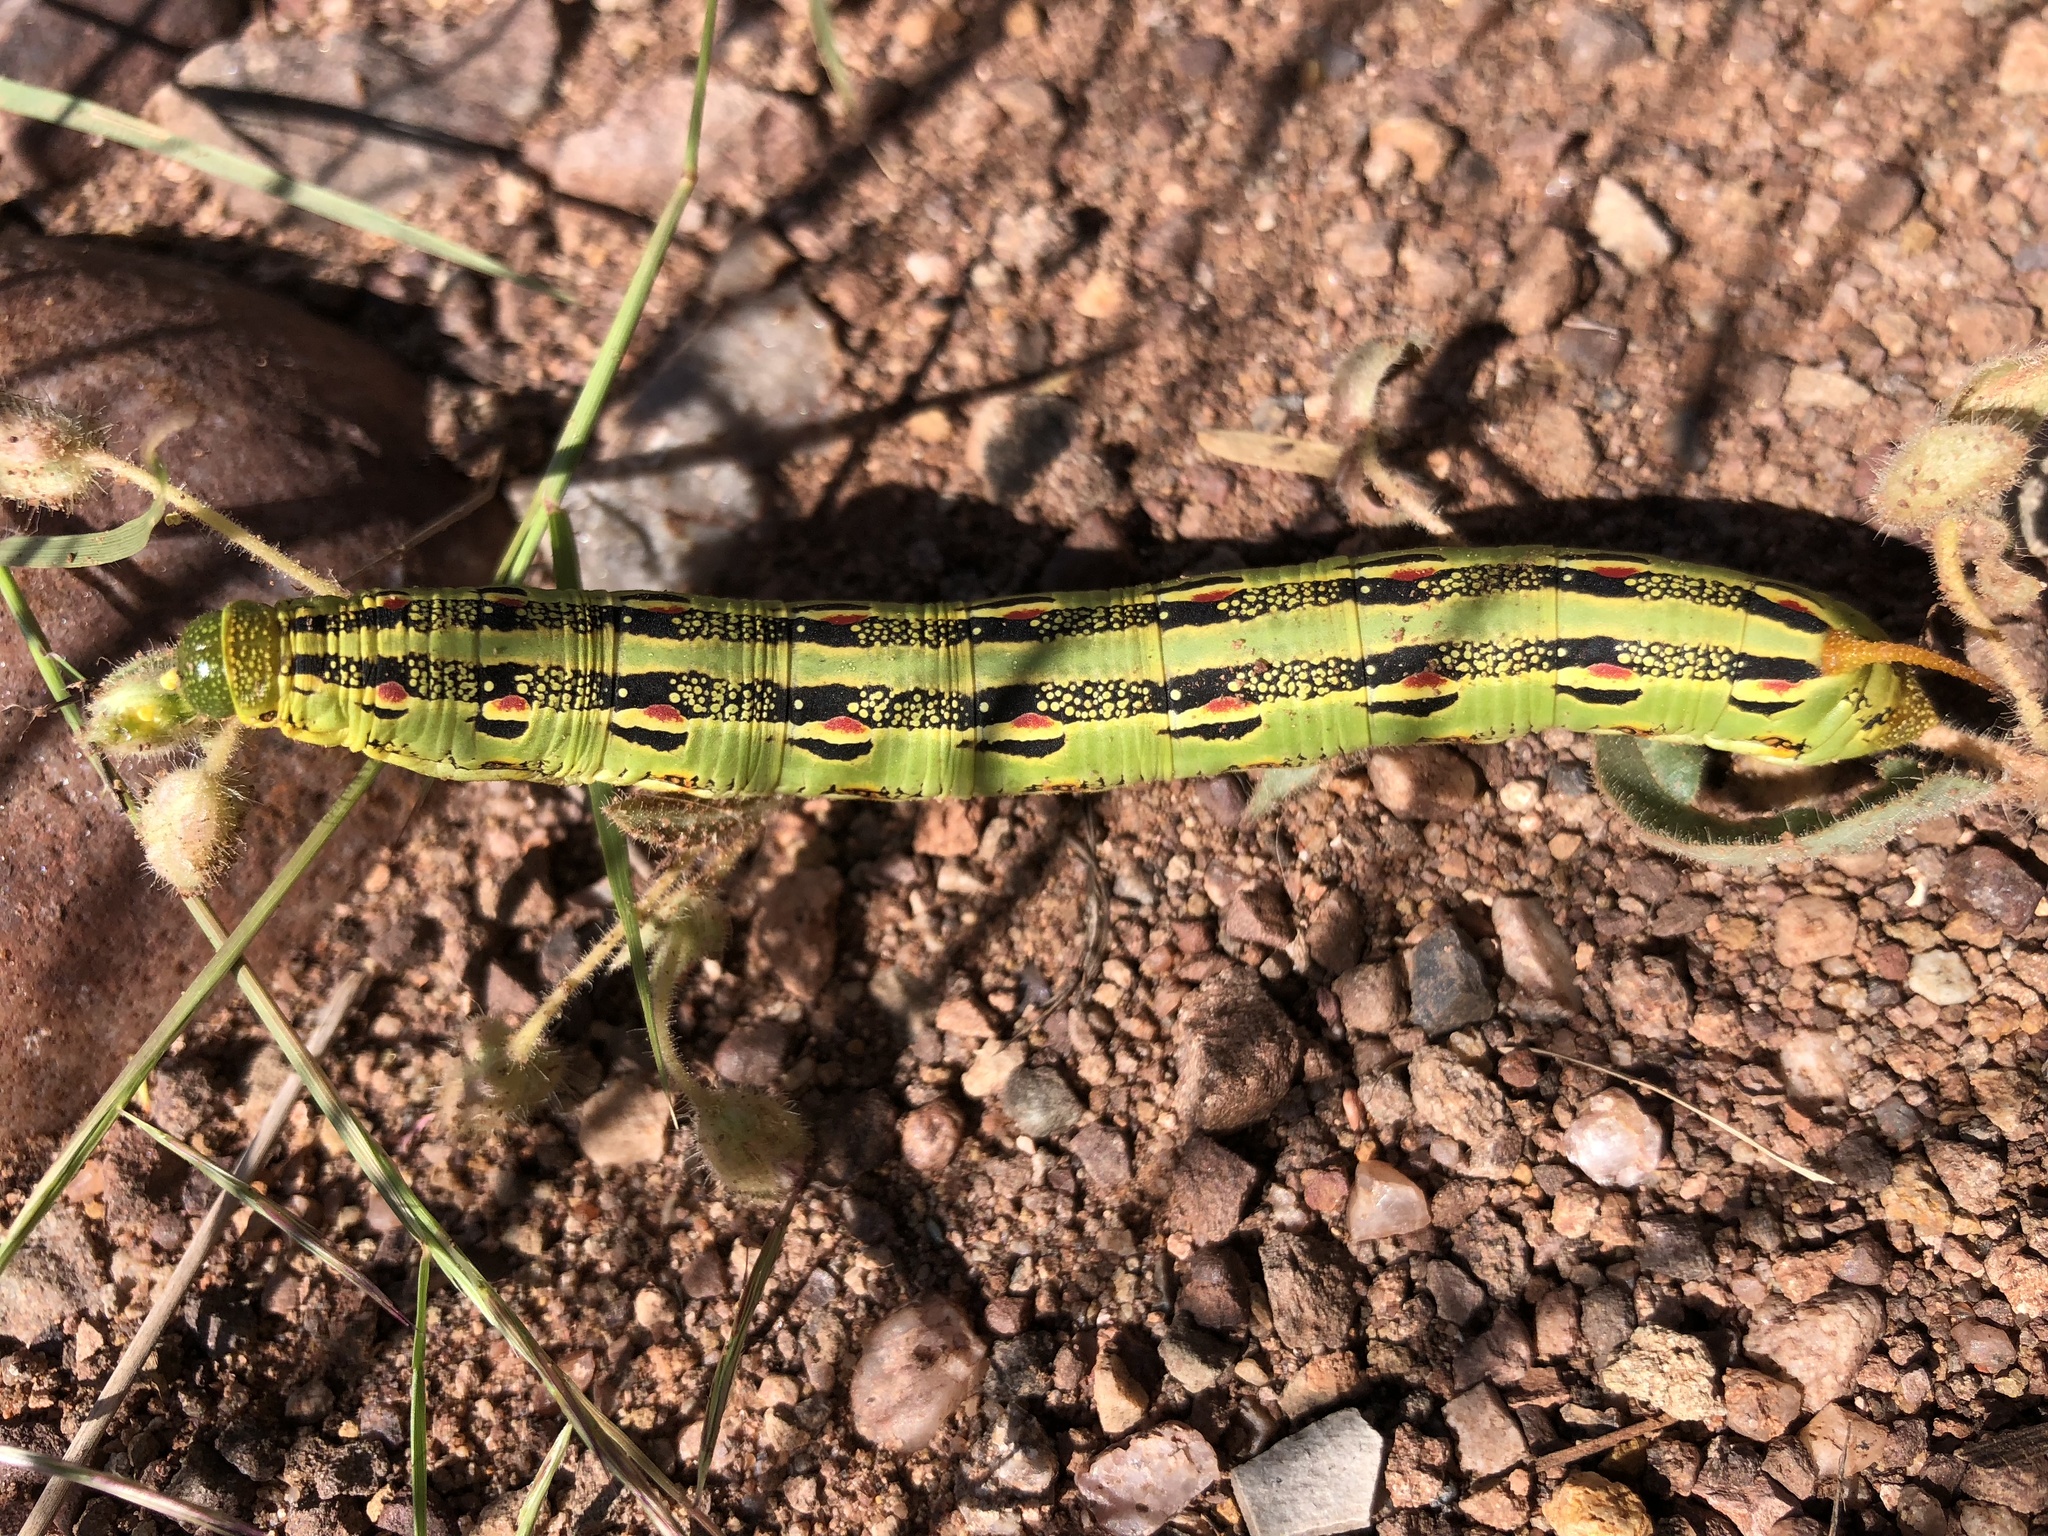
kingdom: Animalia
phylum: Arthropoda
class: Insecta
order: Lepidoptera
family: Sphingidae
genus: Hyles
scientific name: Hyles lineata
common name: White-lined sphinx
